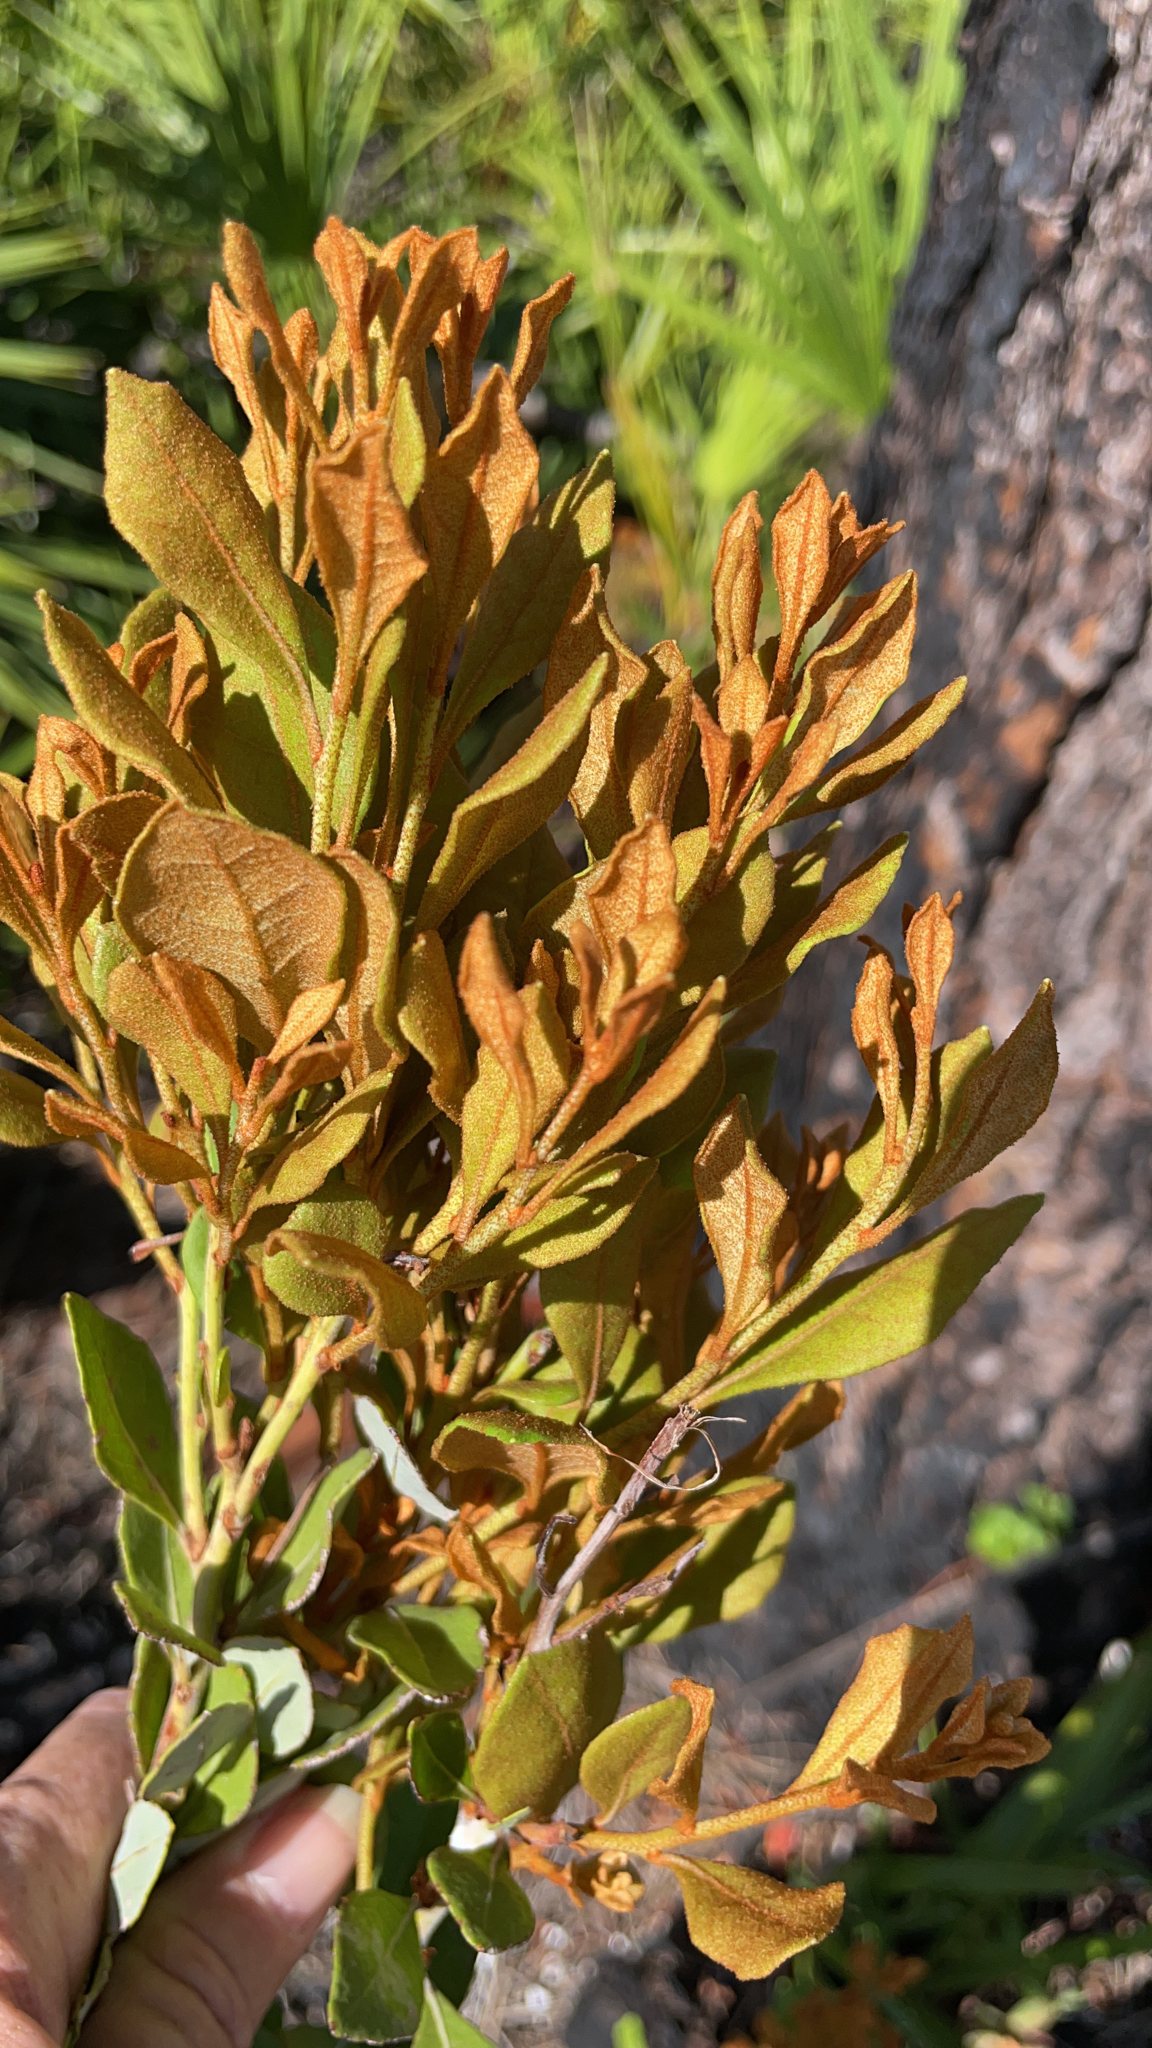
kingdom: Plantae
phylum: Tracheophyta
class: Magnoliopsida
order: Ericales
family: Ericaceae
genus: Lyonia
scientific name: Lyonia fruticosa
